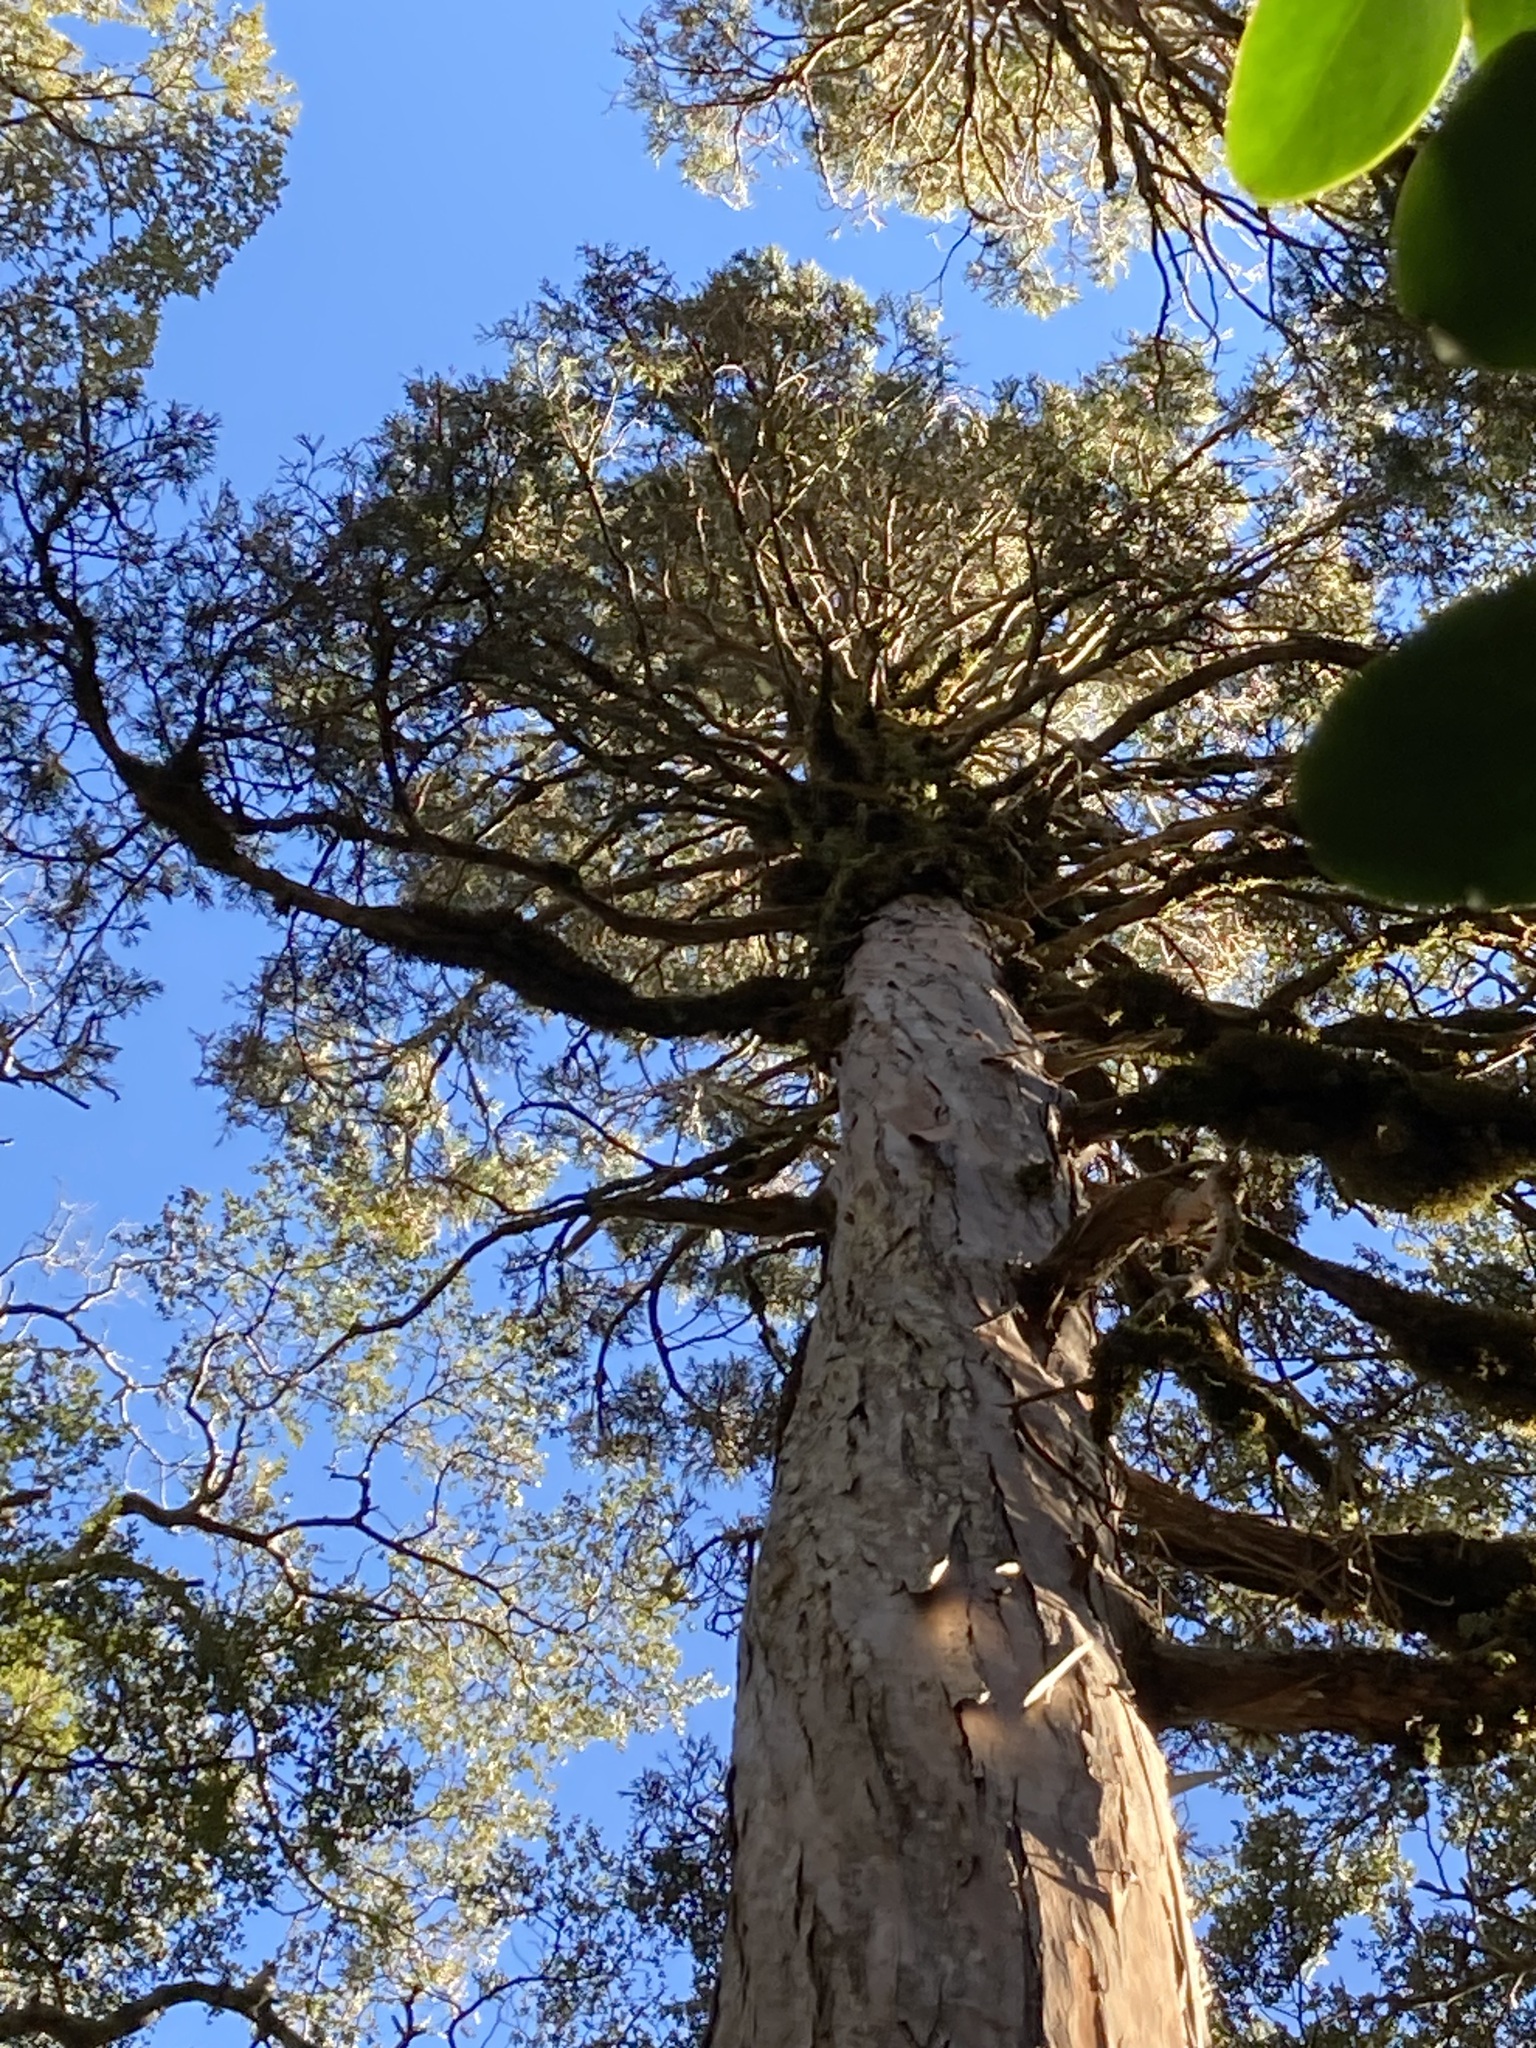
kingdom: Plantae
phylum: Tracheophyta
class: Pinopsida
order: Pinales
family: Cupressaceae
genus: Libocedrus
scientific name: Libocedrus bidwillii
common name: Cedar
